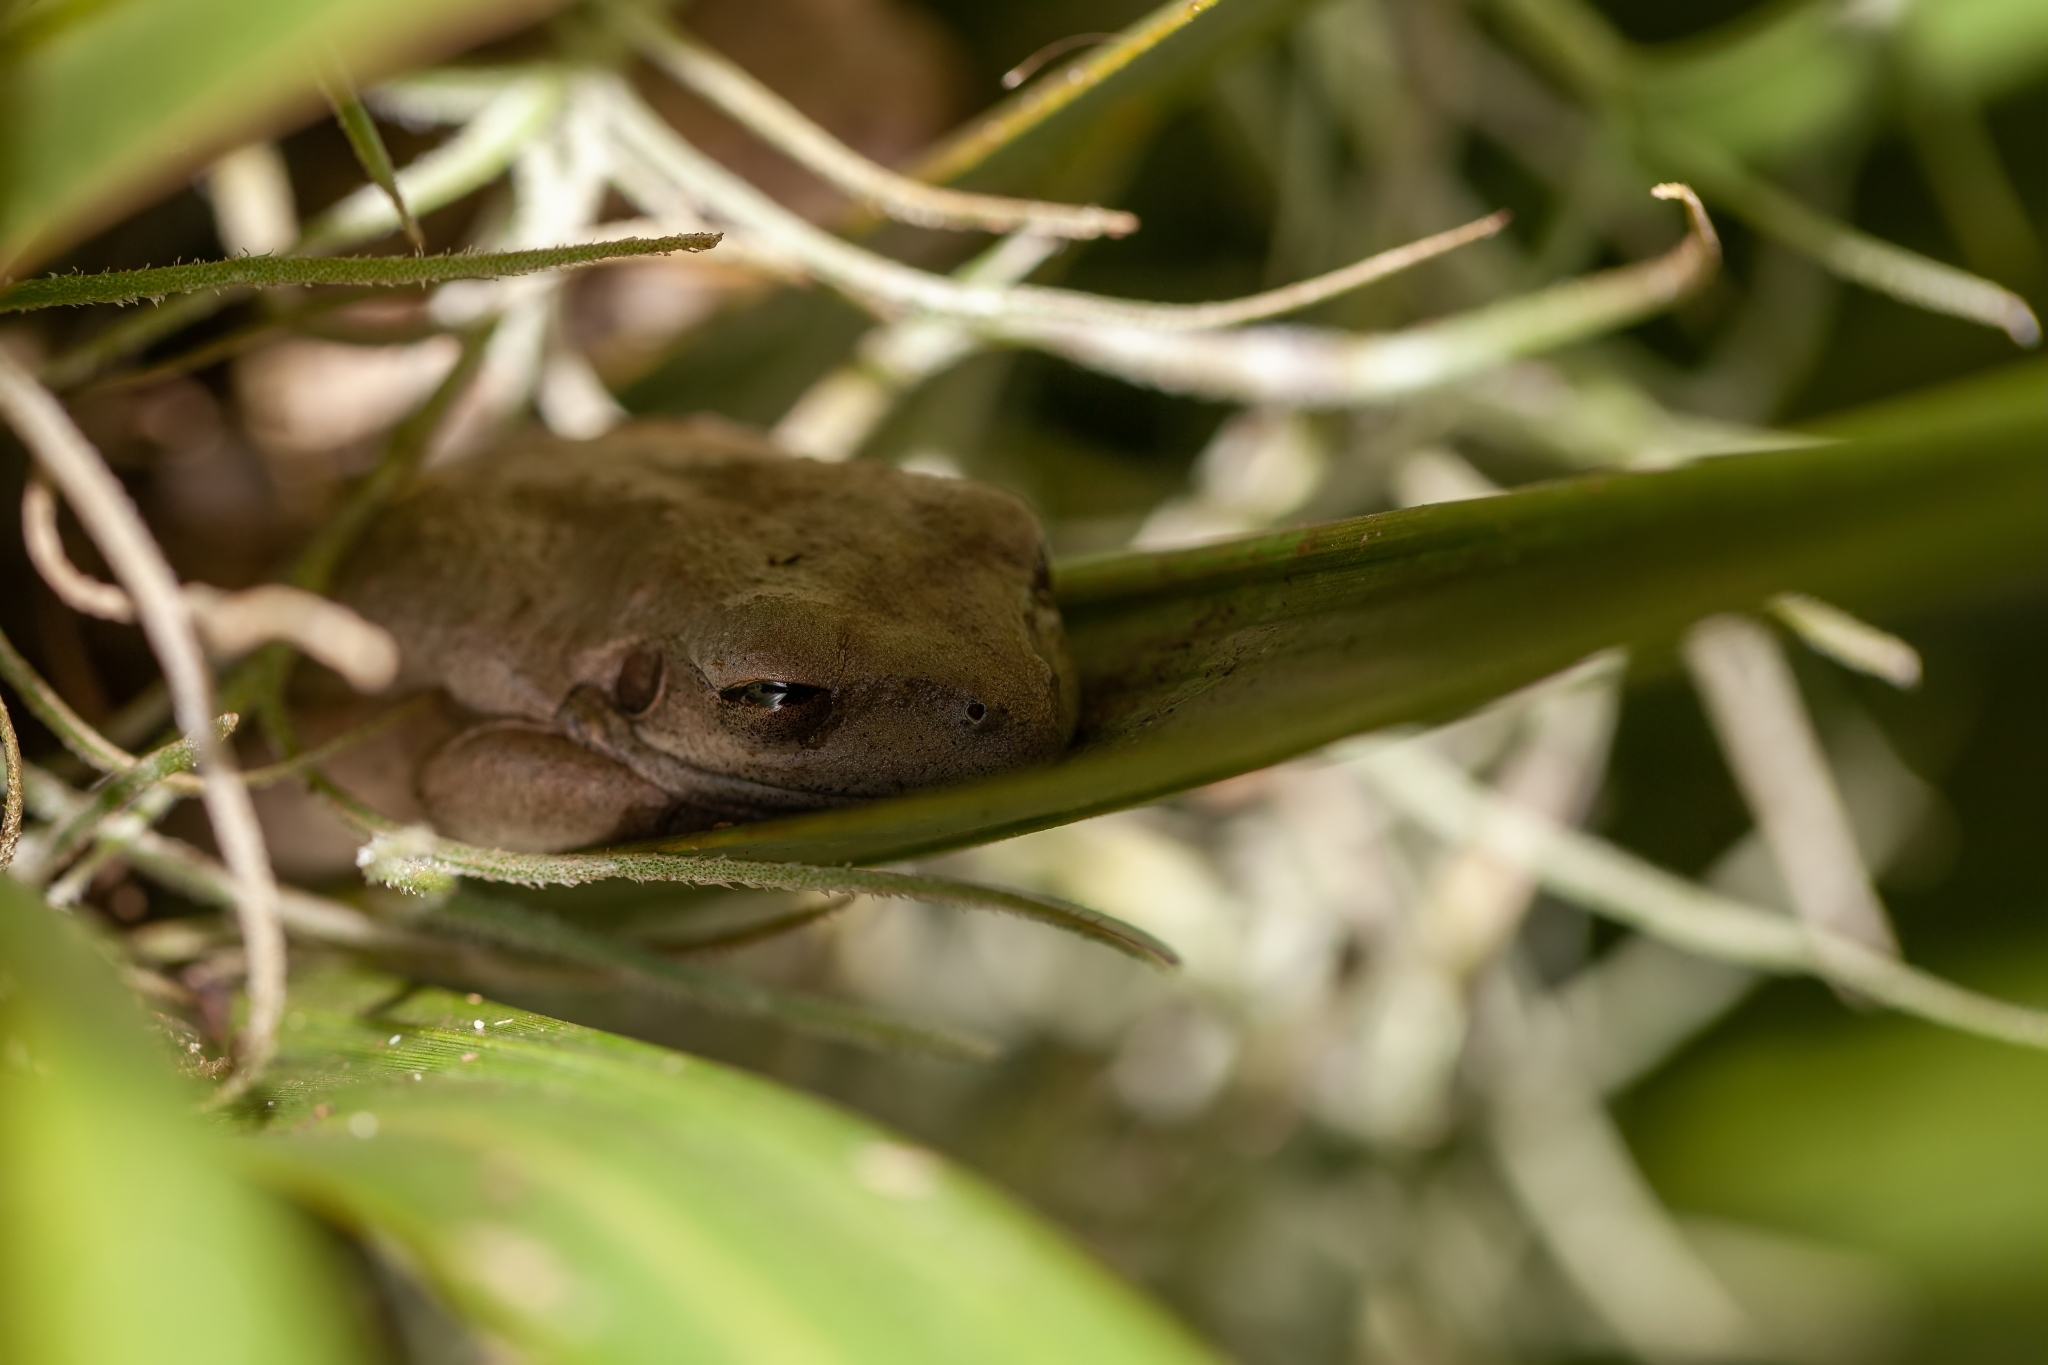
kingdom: Animalia
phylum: Chordata
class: Amphibia
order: Anura
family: Hylidae
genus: Osteopilus
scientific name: Osteopilus septentrionalis
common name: Cuban treefrog
